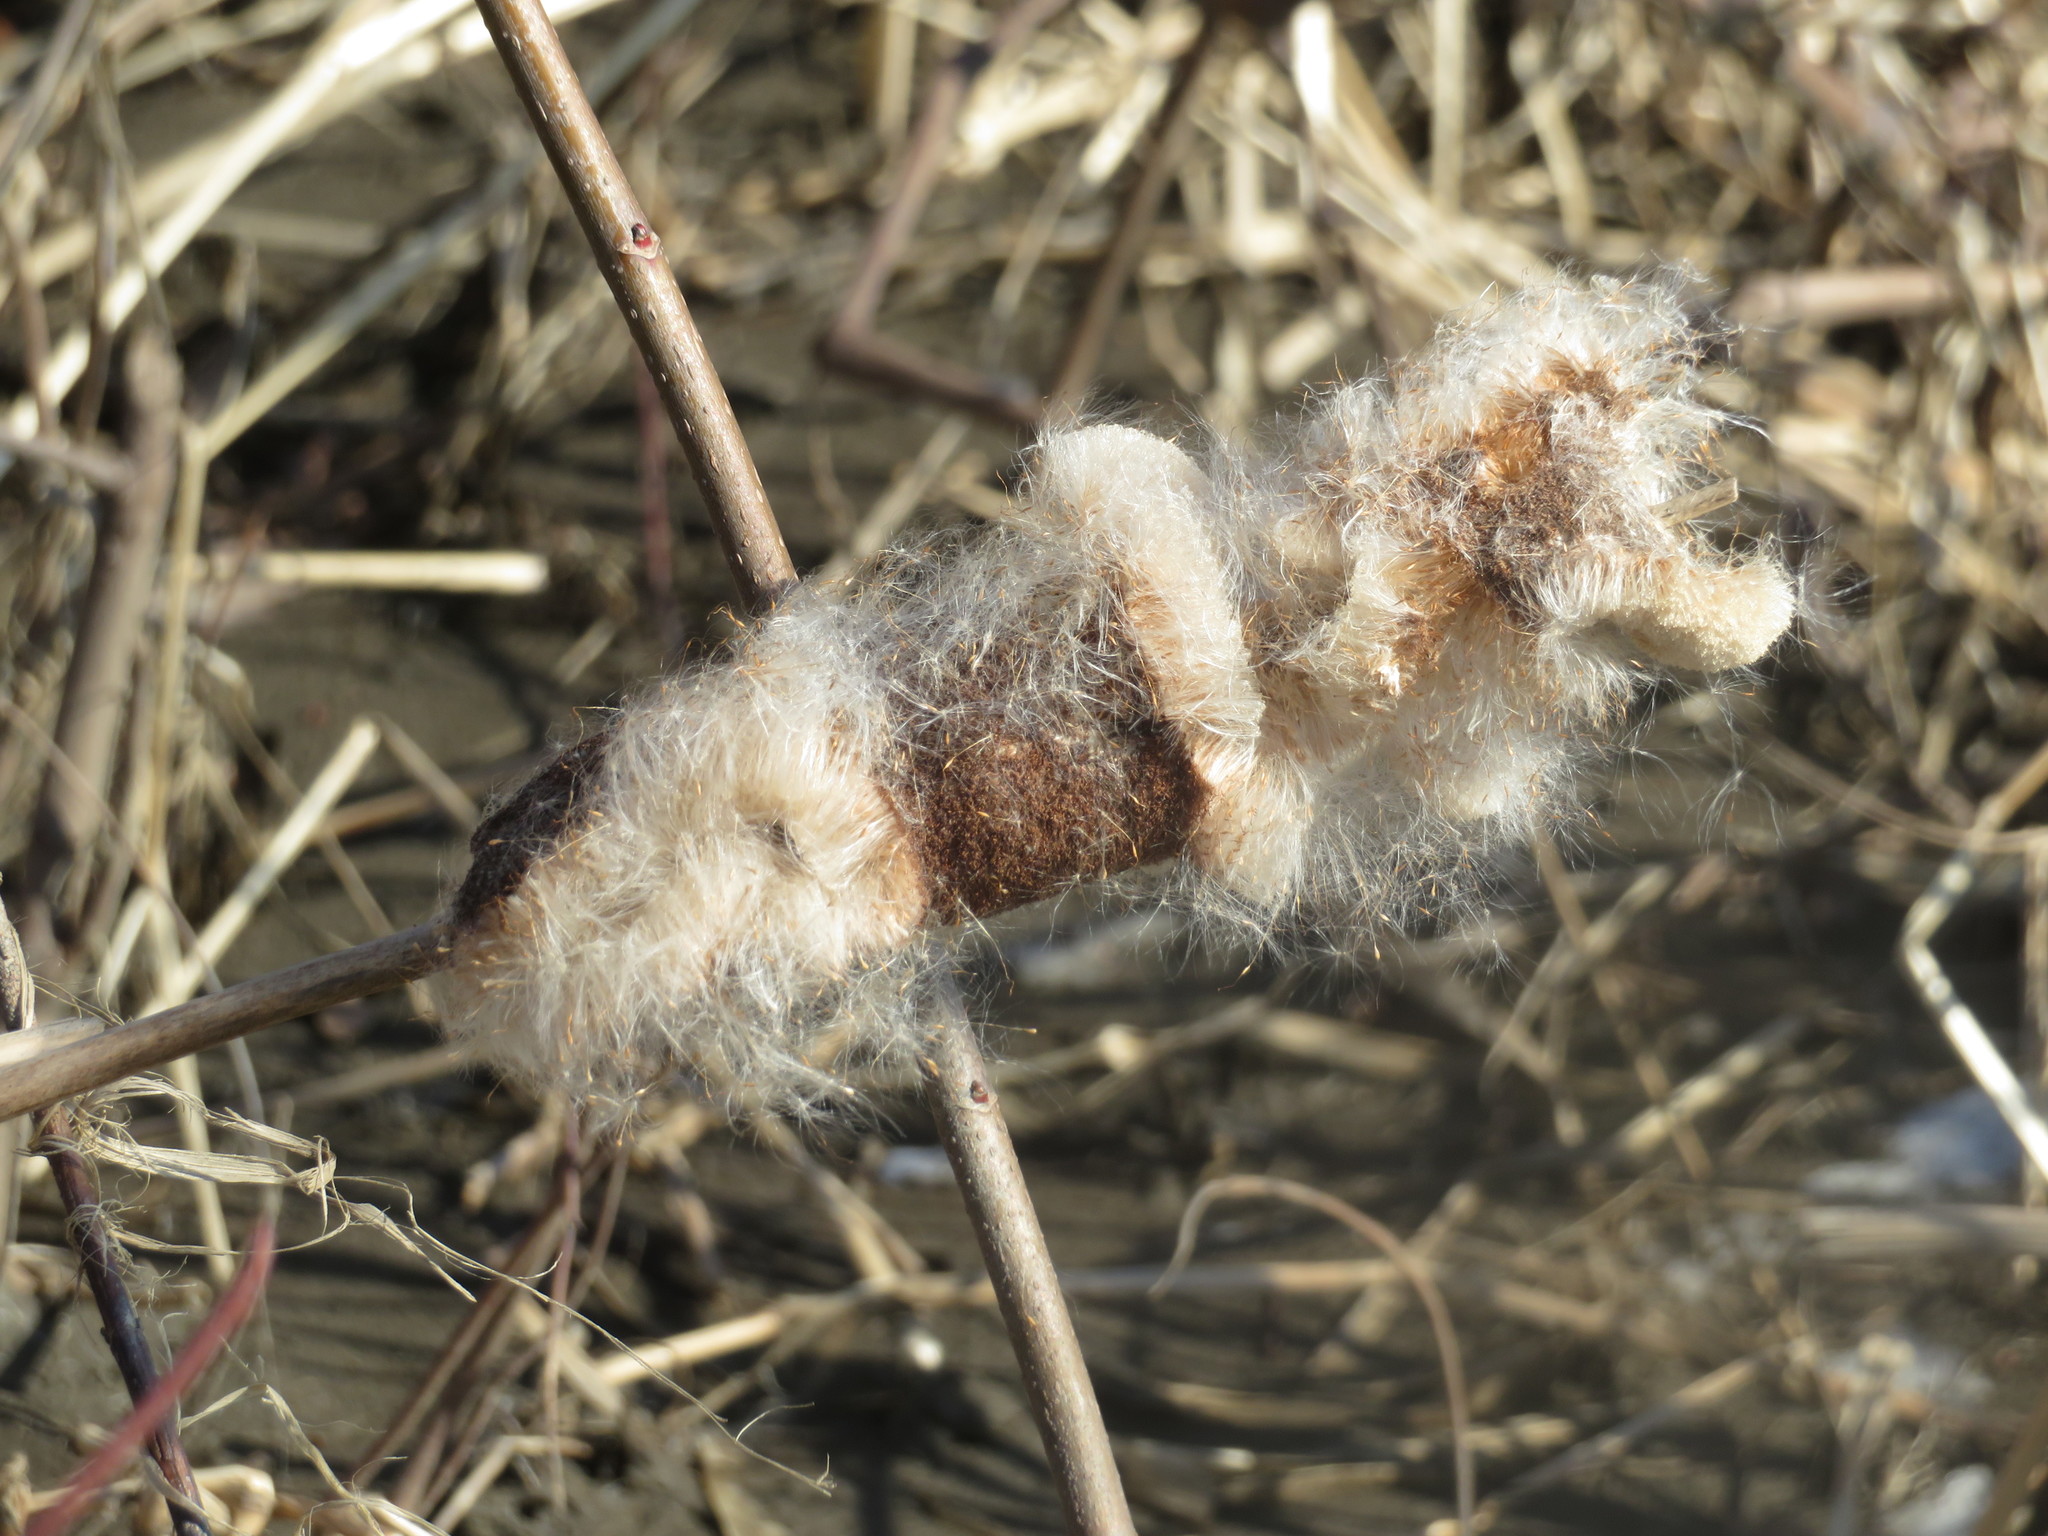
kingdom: Plantae
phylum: Tracheophyta
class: Liliopsida
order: Poales
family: Typhaceae
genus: Typha
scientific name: Typha
